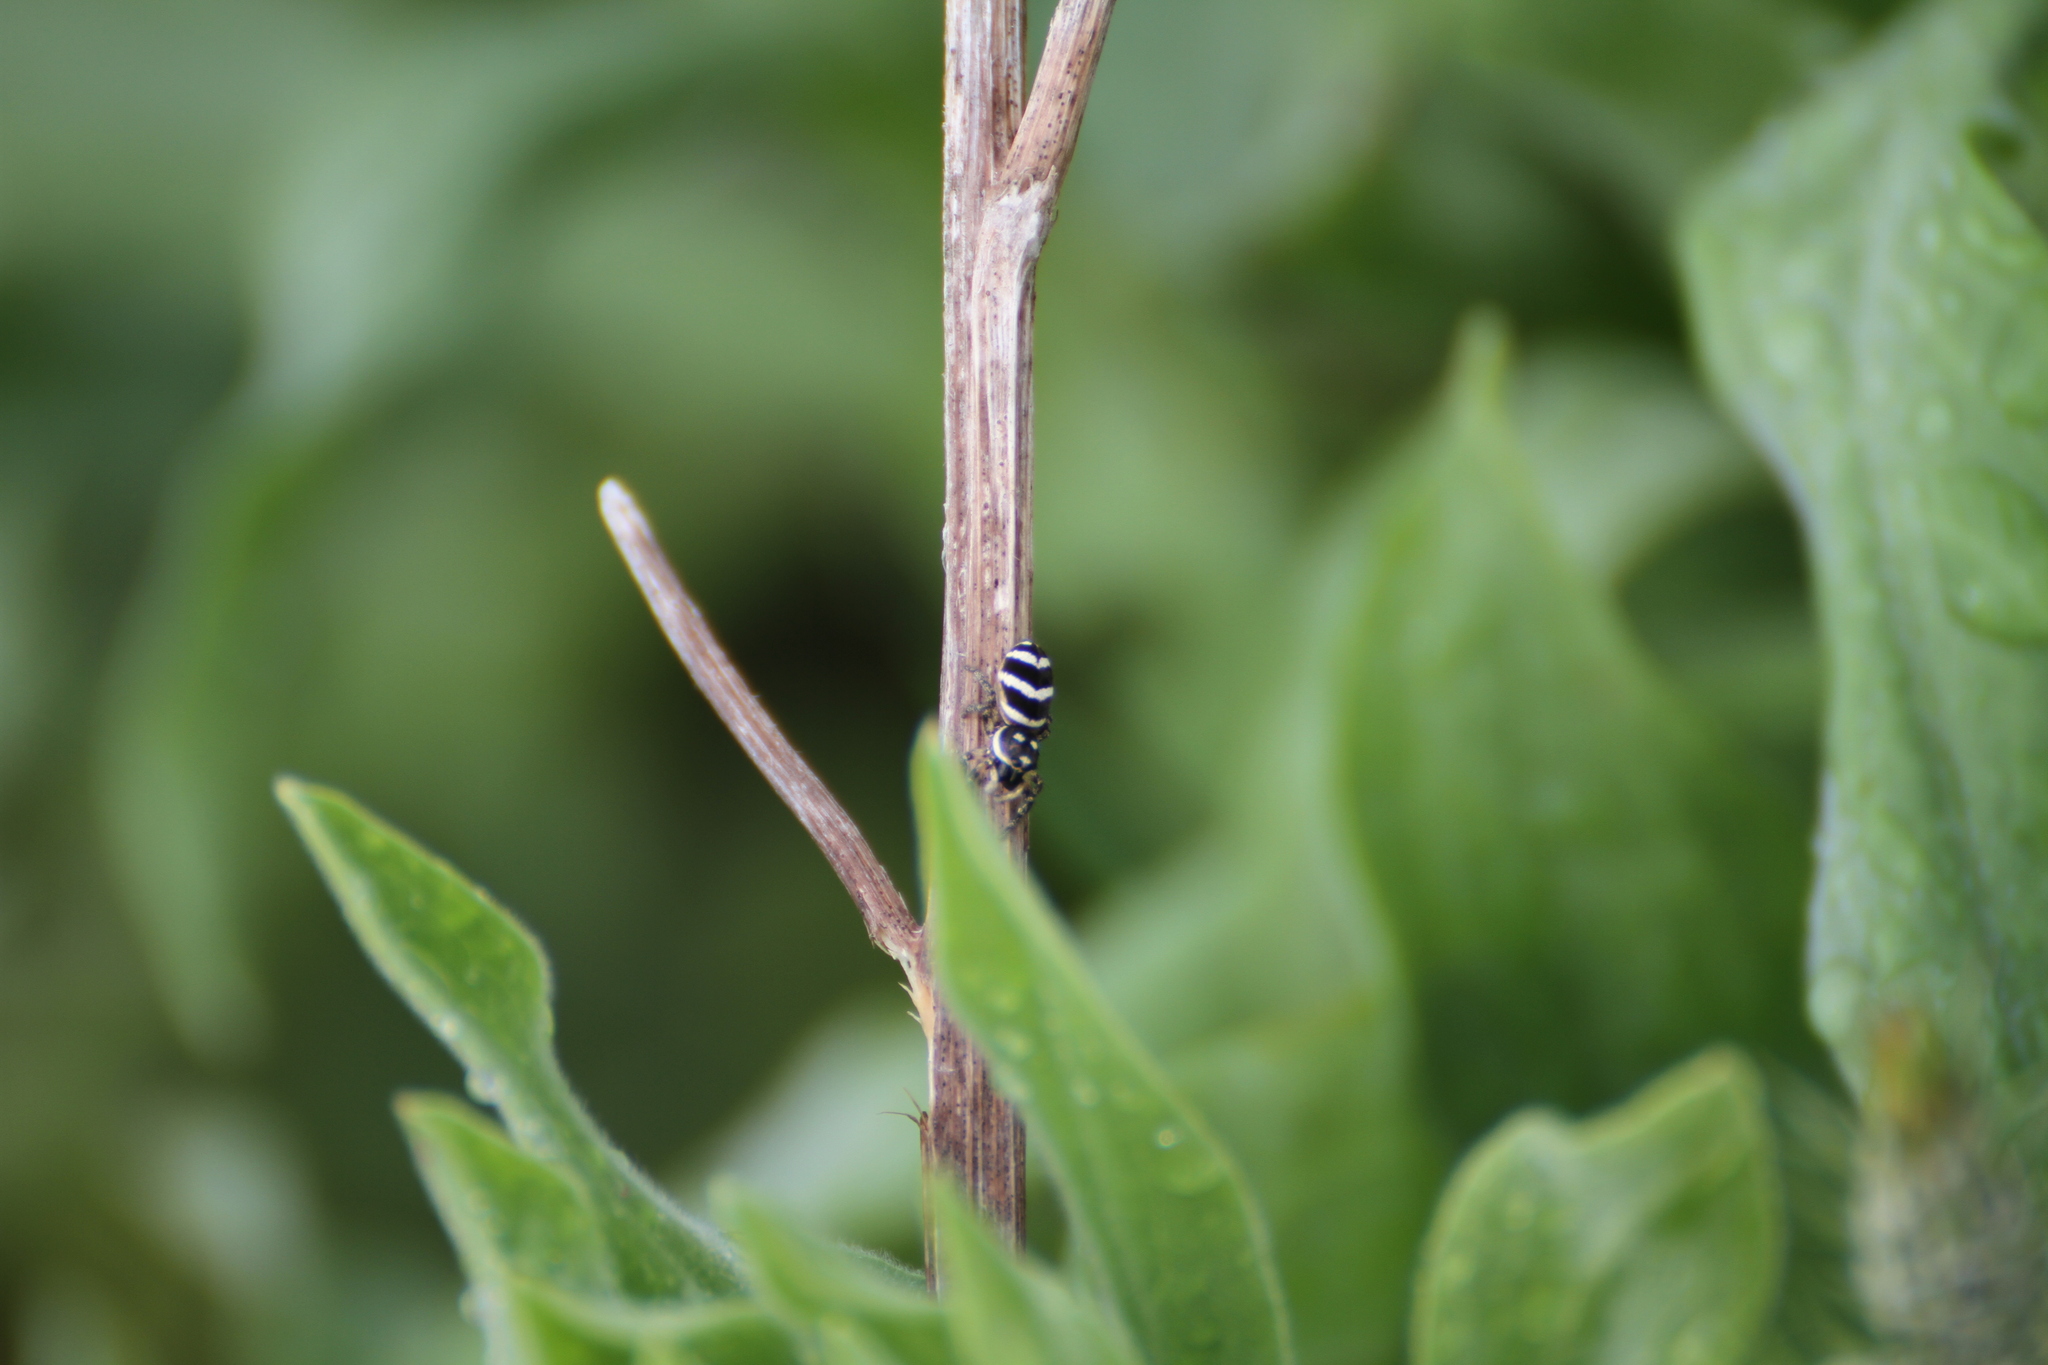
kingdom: Animalia
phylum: Arthropoda
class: Arachnida
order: Araneae
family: Salticidae
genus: Salticus
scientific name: Salticus propinquus
